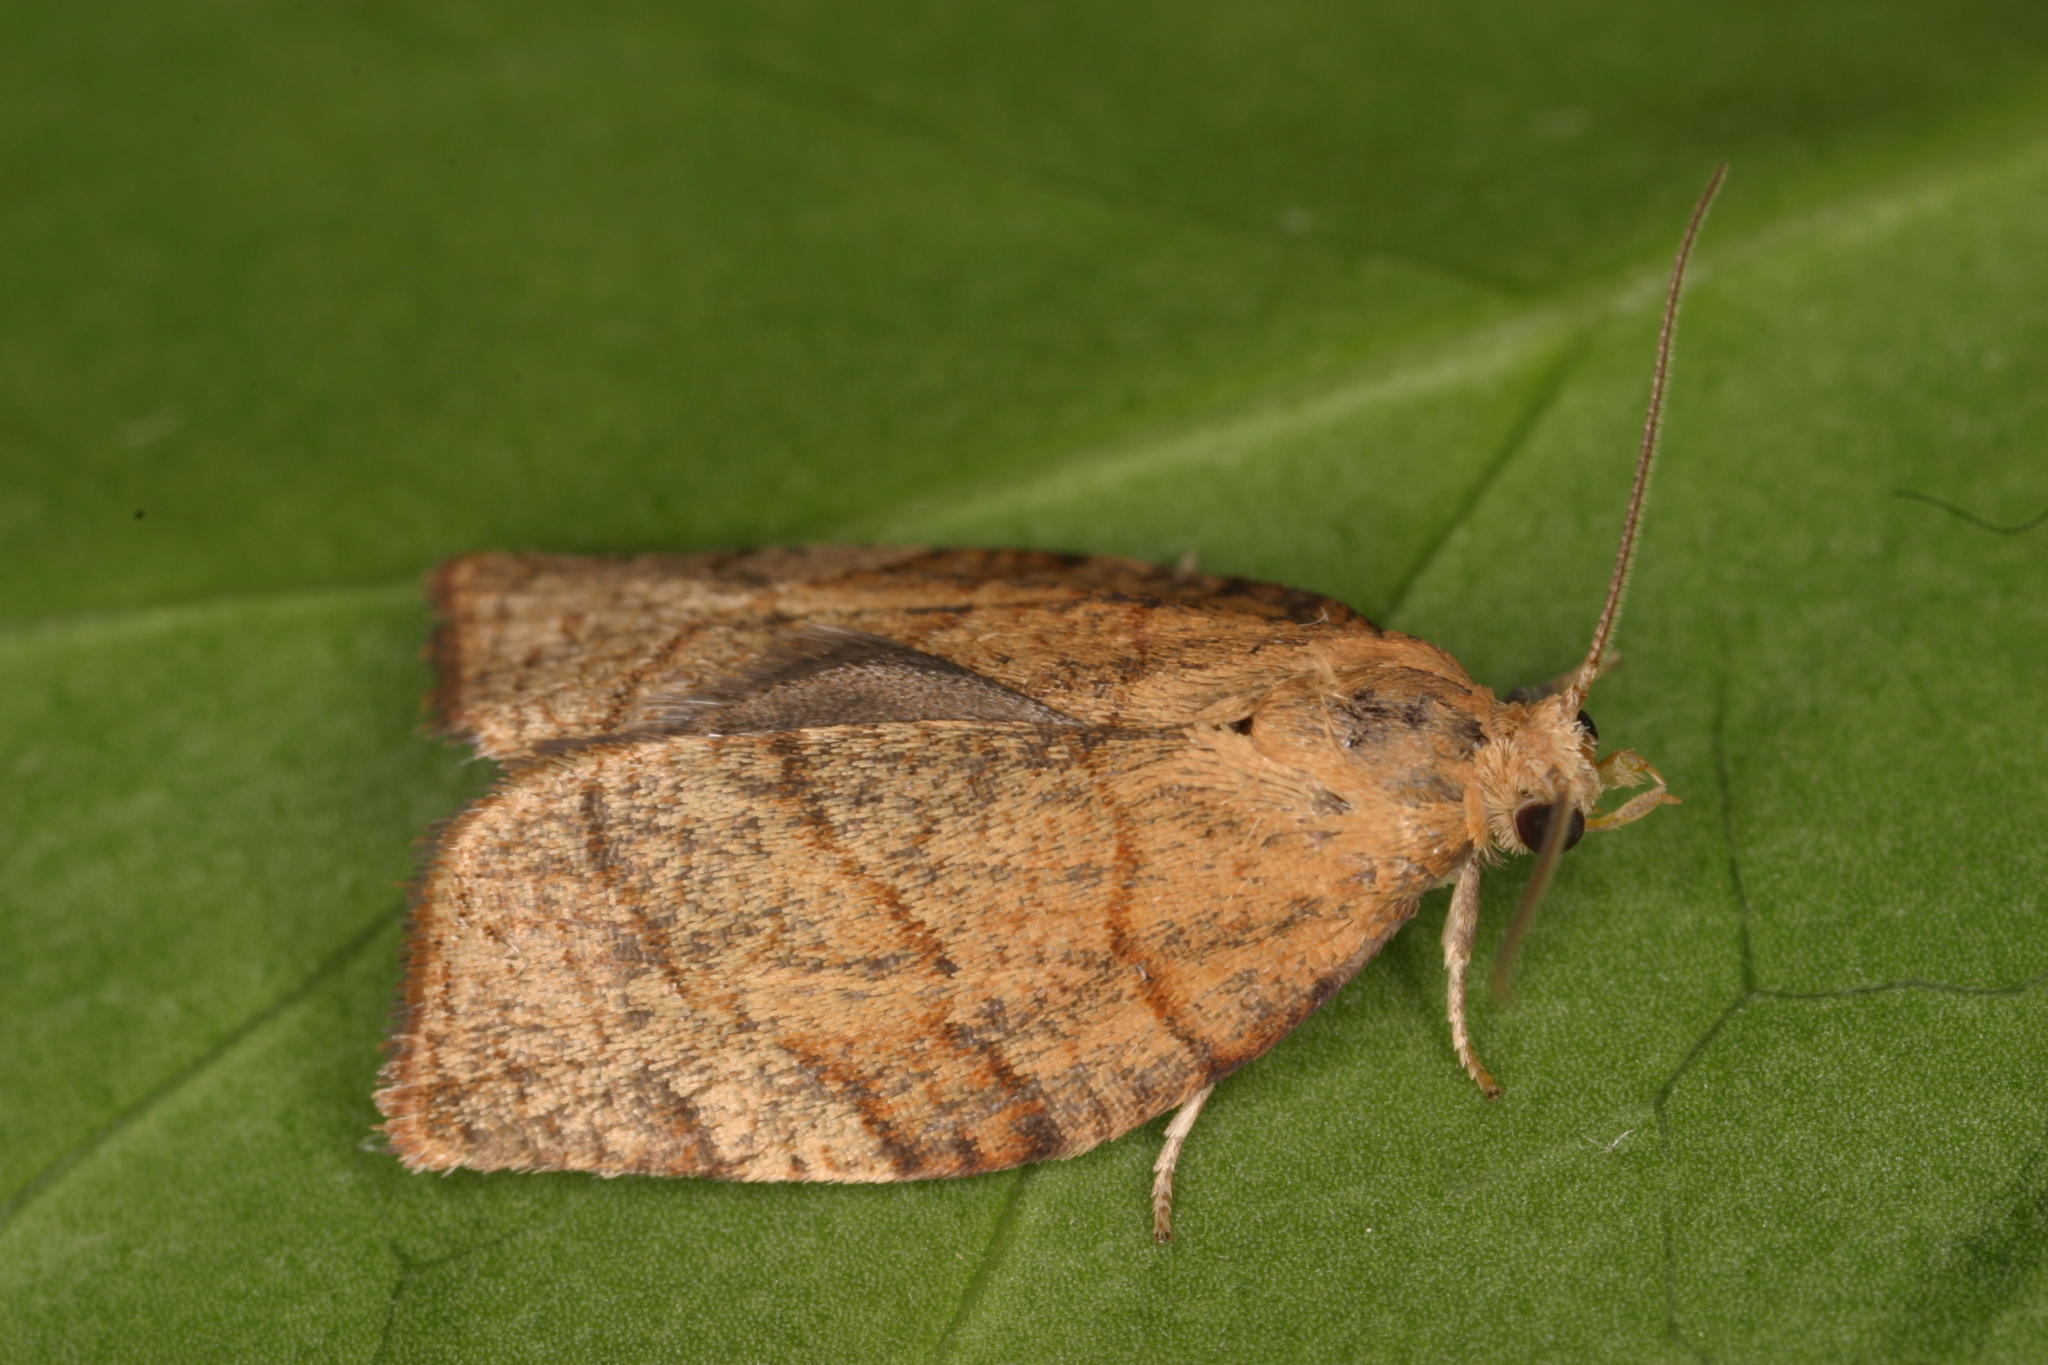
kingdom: Animalia
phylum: Arthropoda
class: Insecta
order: Lepidoptera
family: Tortricidae
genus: Pandemis
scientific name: Pandemis cerasana
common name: Barred fruit-tree tortrix
